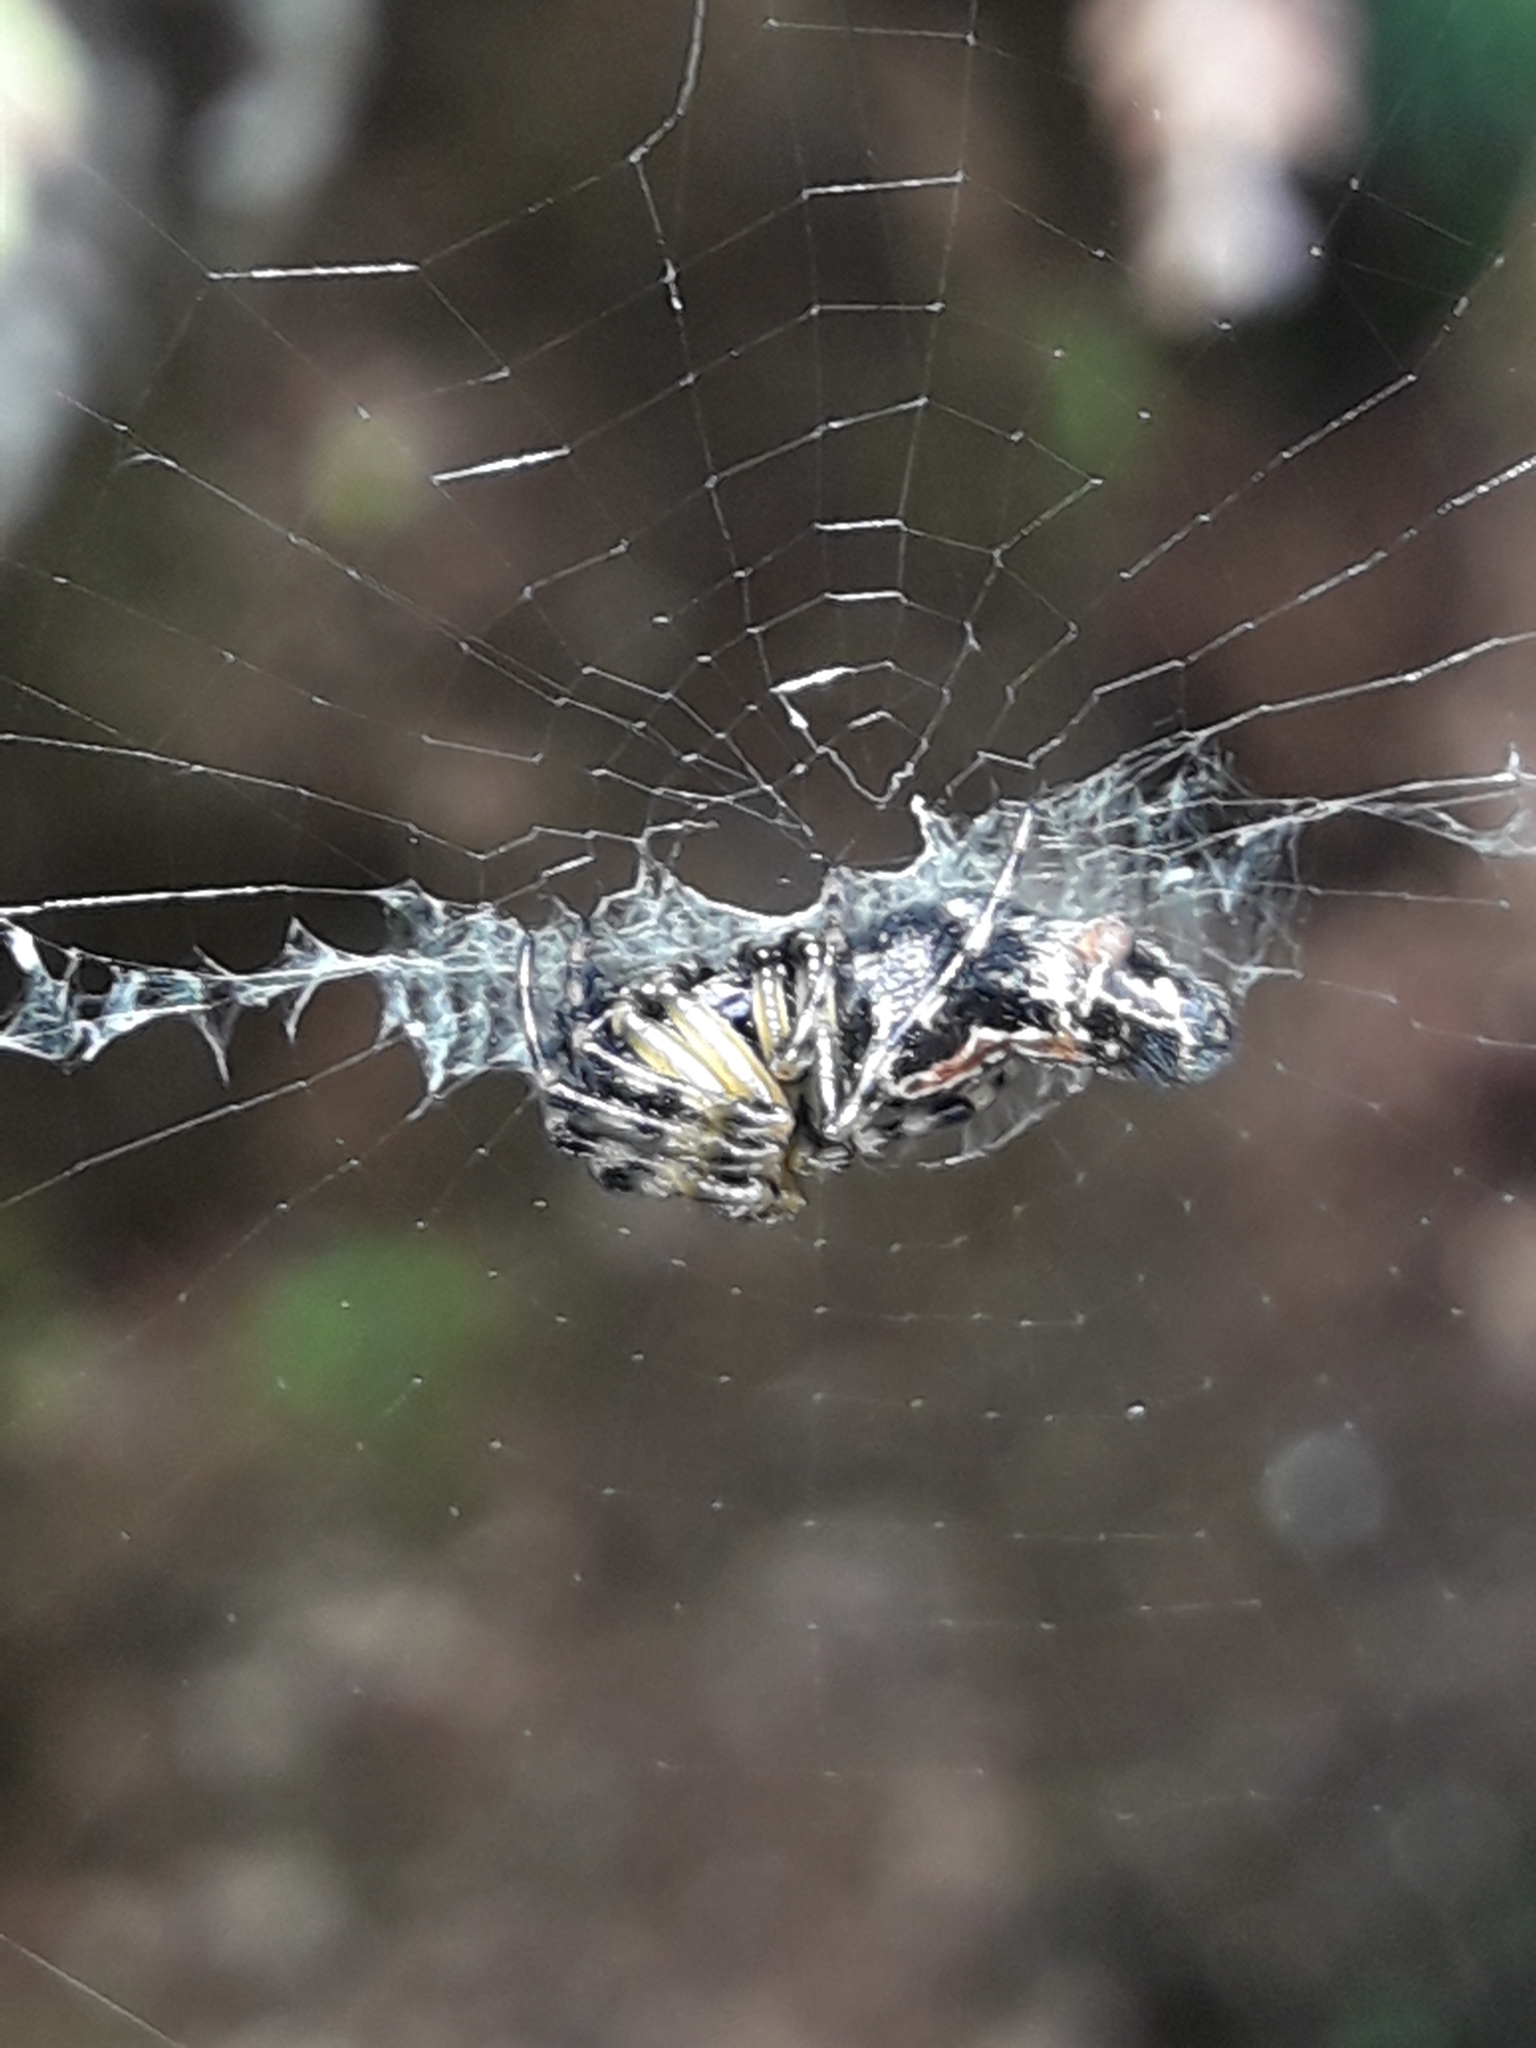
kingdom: Animalia
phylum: Arthropoda
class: Arachnida
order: Araneae
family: Araneidae
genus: Cyclosa
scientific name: Cyclosa trilobata
